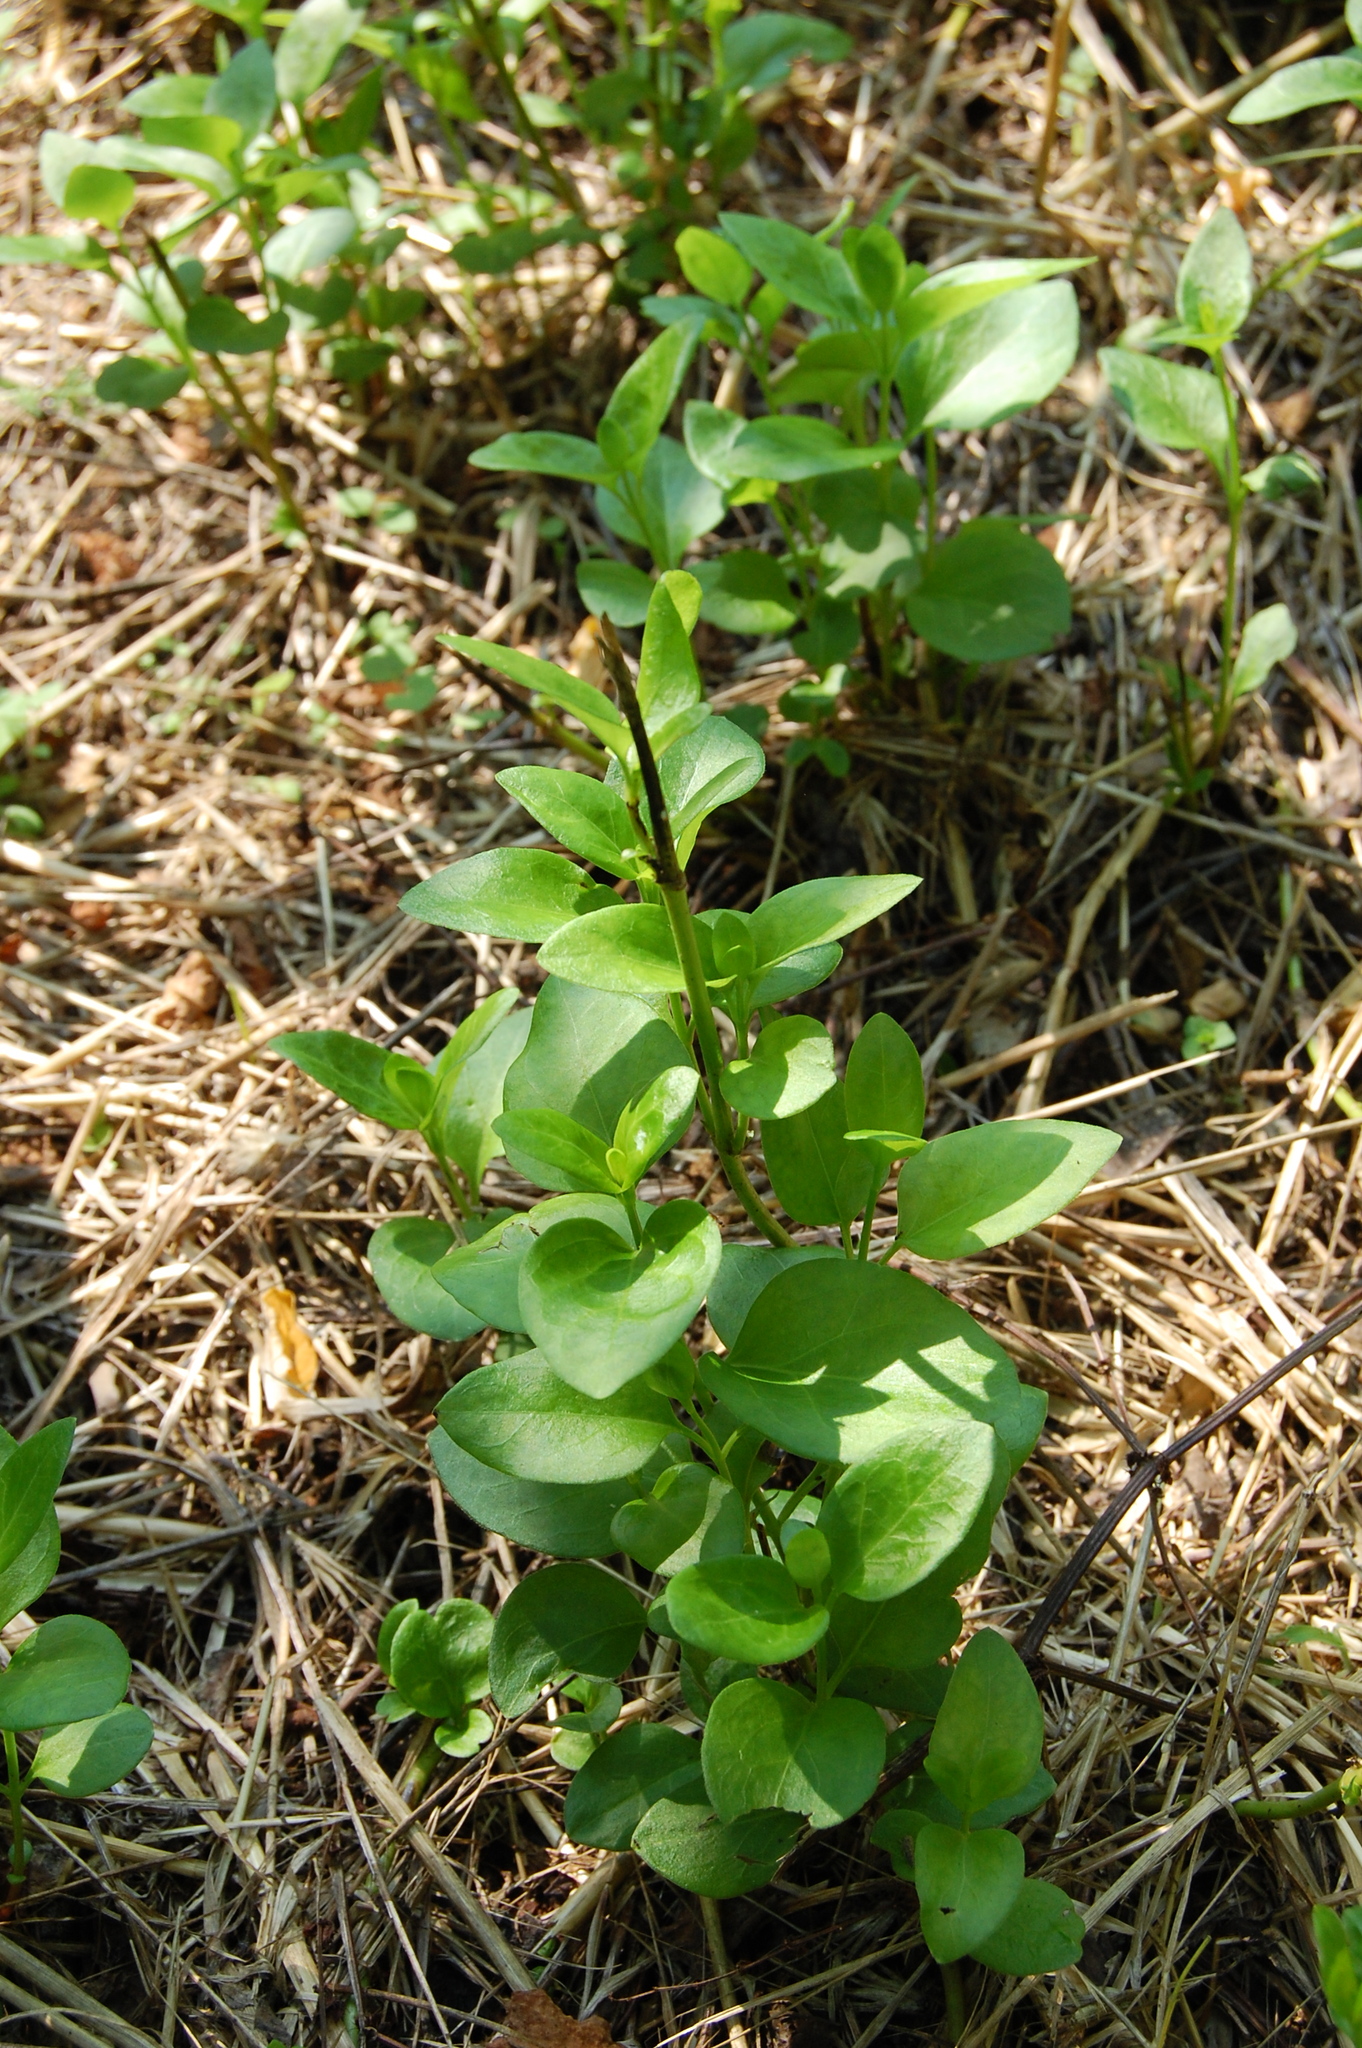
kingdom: Plantae
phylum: Tracheophyta
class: Magnoliopsida
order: Gentianales
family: Apocynaceae
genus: Vinca
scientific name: Vinca major
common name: Greater periwinkle
